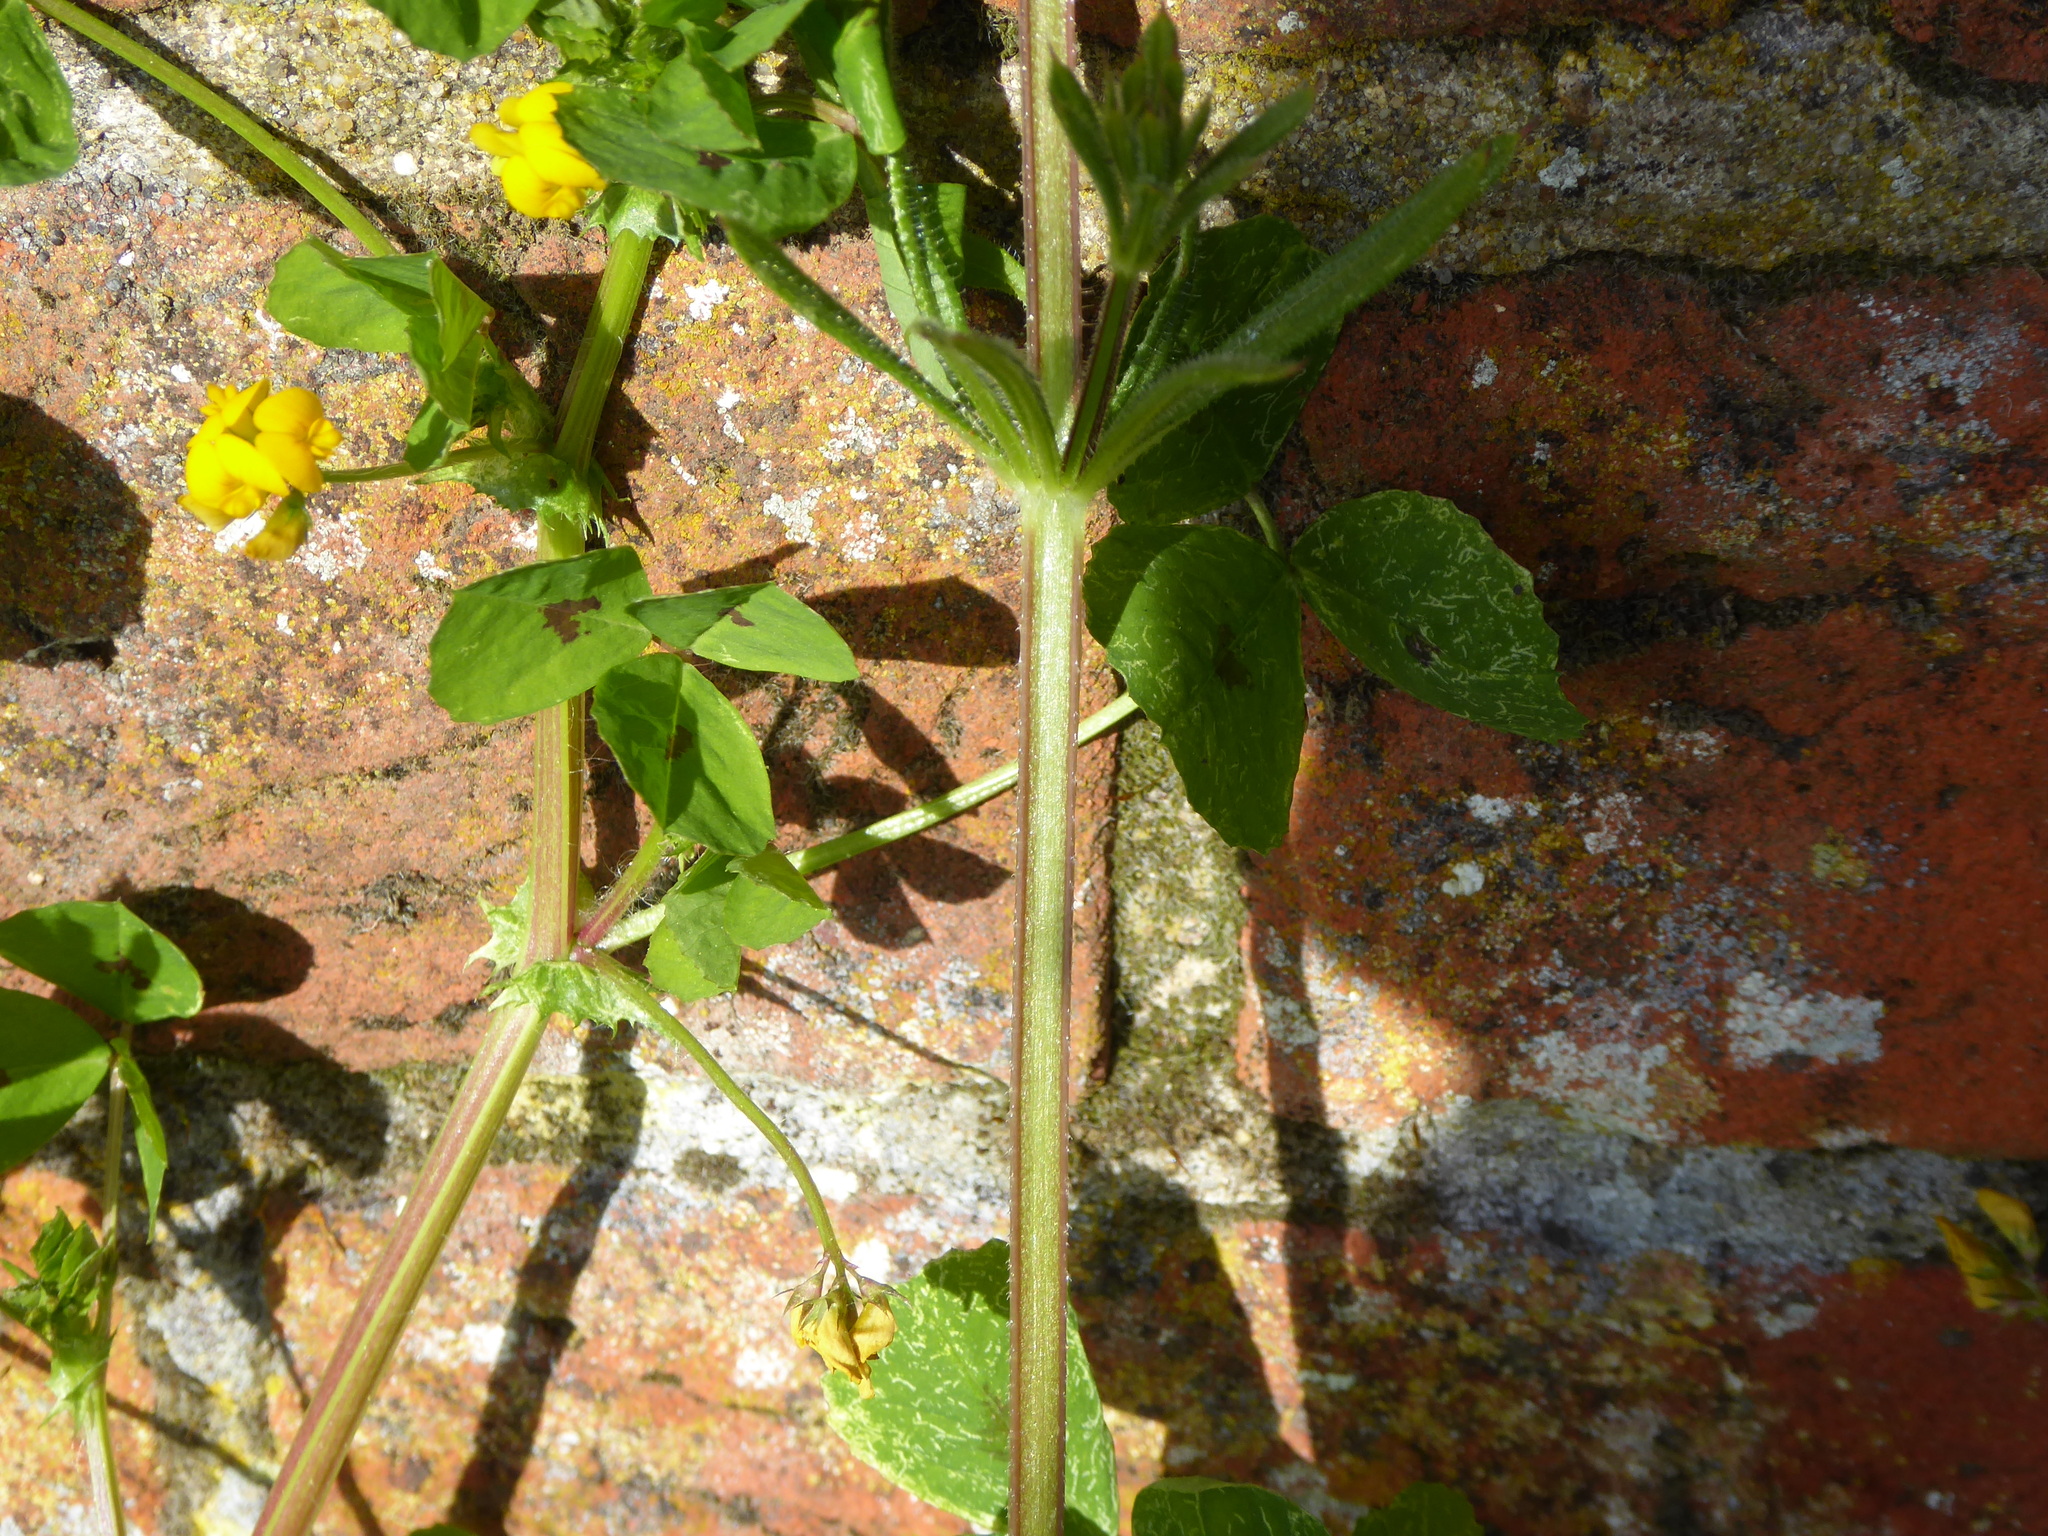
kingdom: Plantae
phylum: Tracheophyta
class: Magnoliopsida
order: Fabales
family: Fabaceae
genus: Medicago
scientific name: Medicago arabica
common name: Spotted medick
